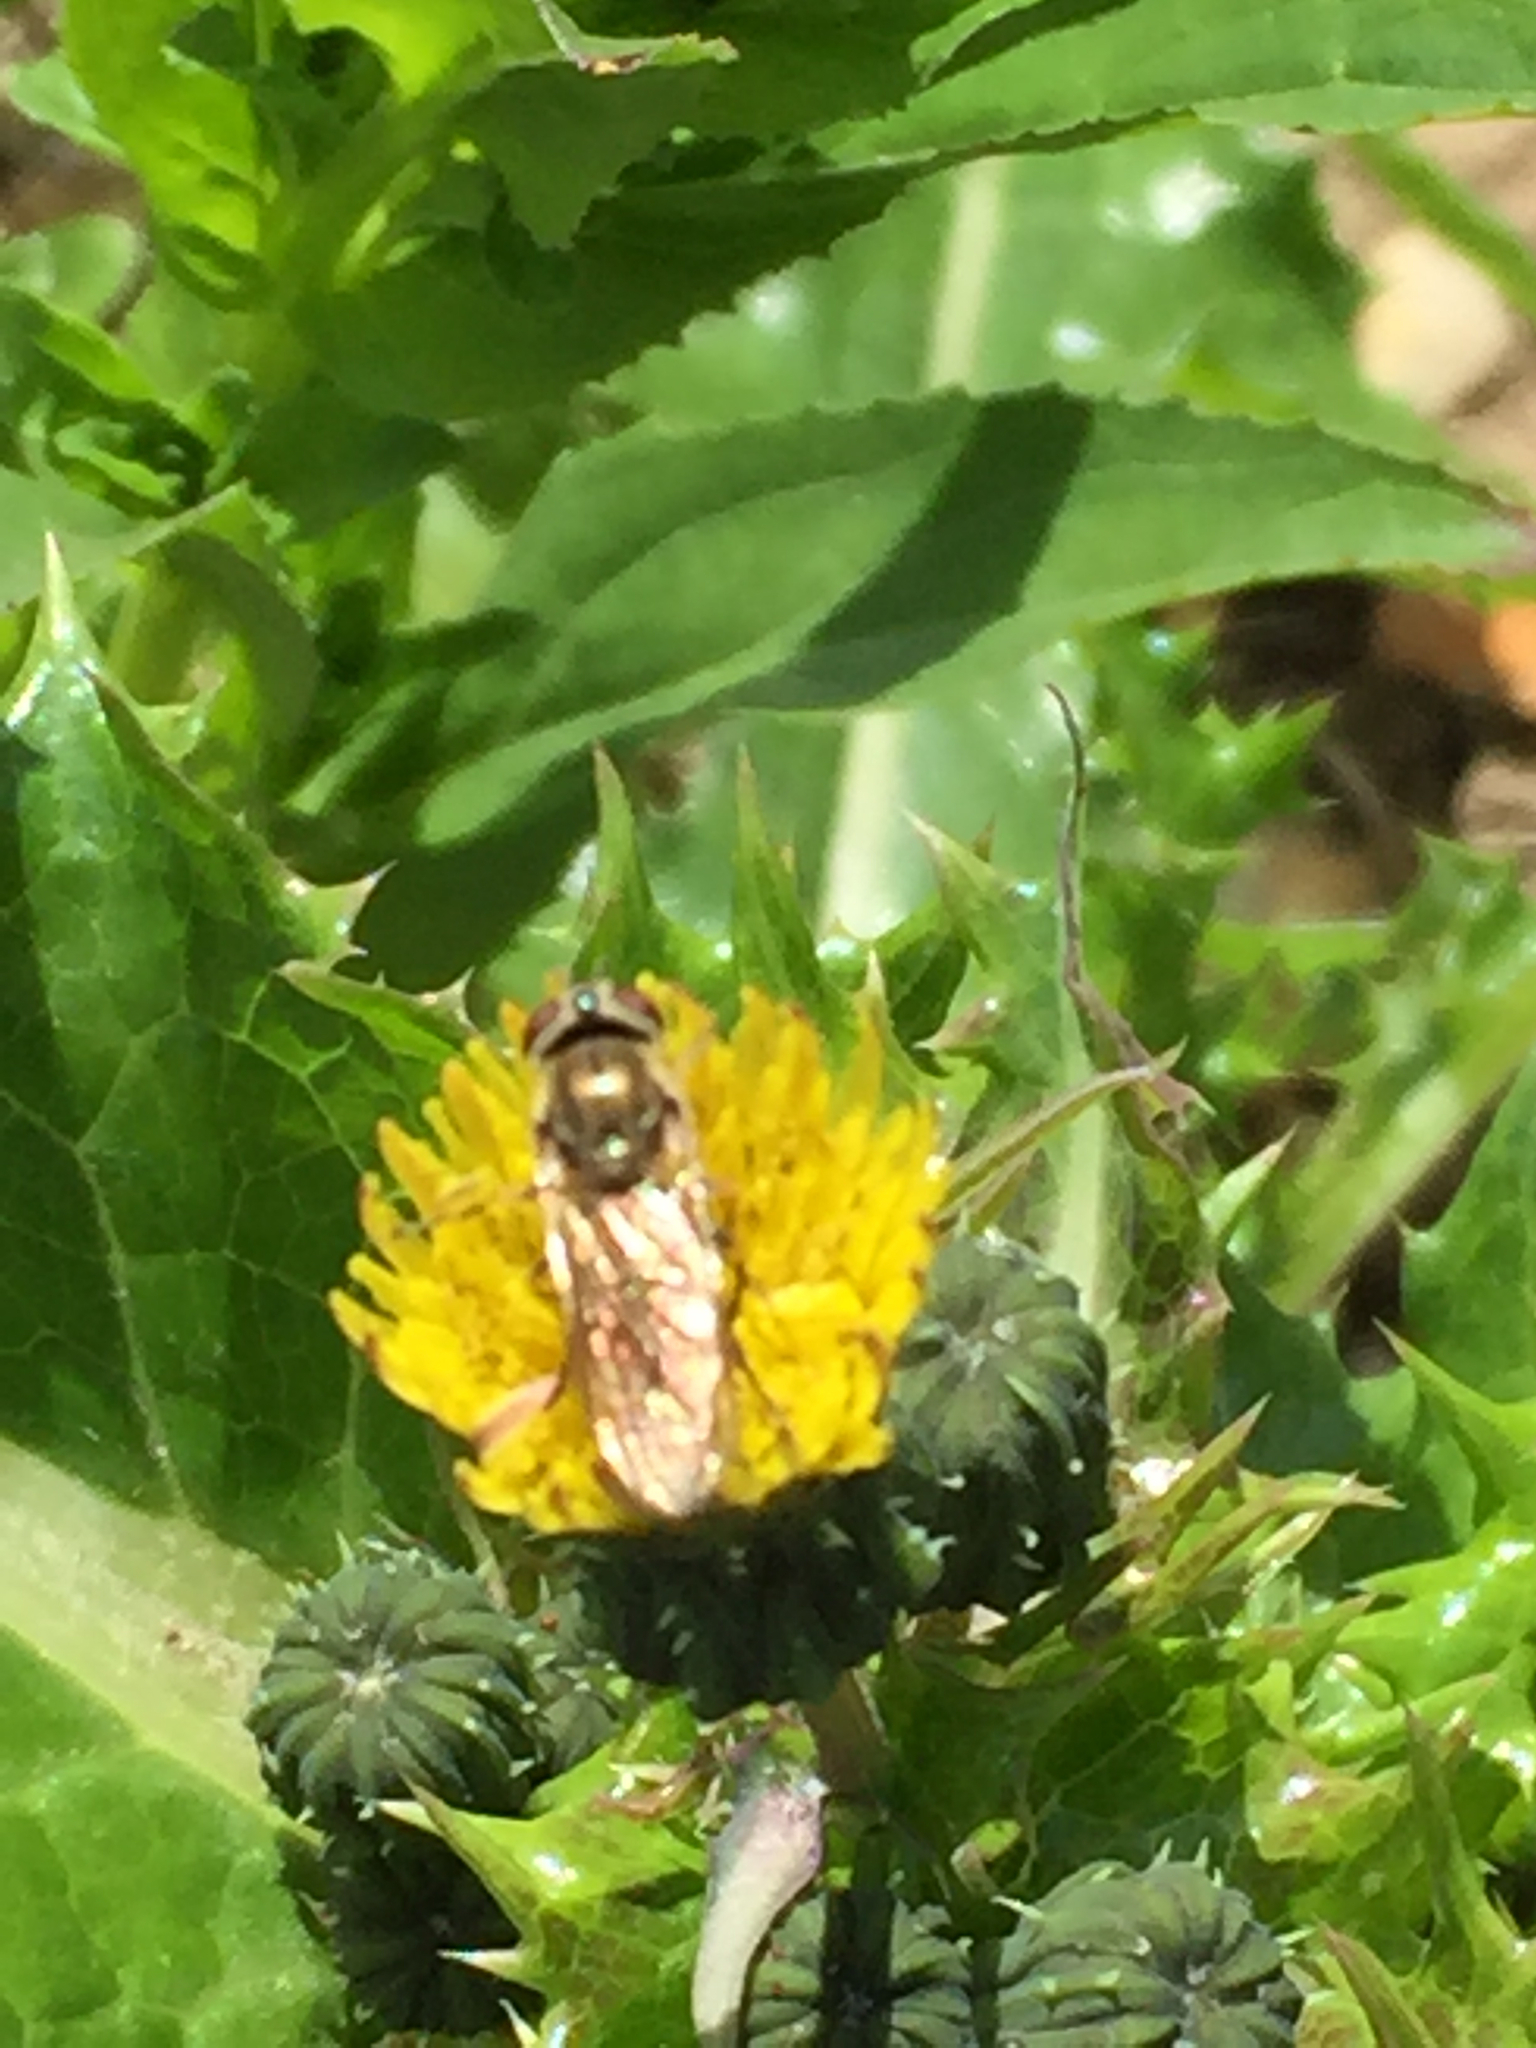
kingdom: Animalia
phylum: Arthropoda
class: Insecta
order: Diptera
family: Syrphidae
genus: Platycheirus
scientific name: Platycheirus manicatus
